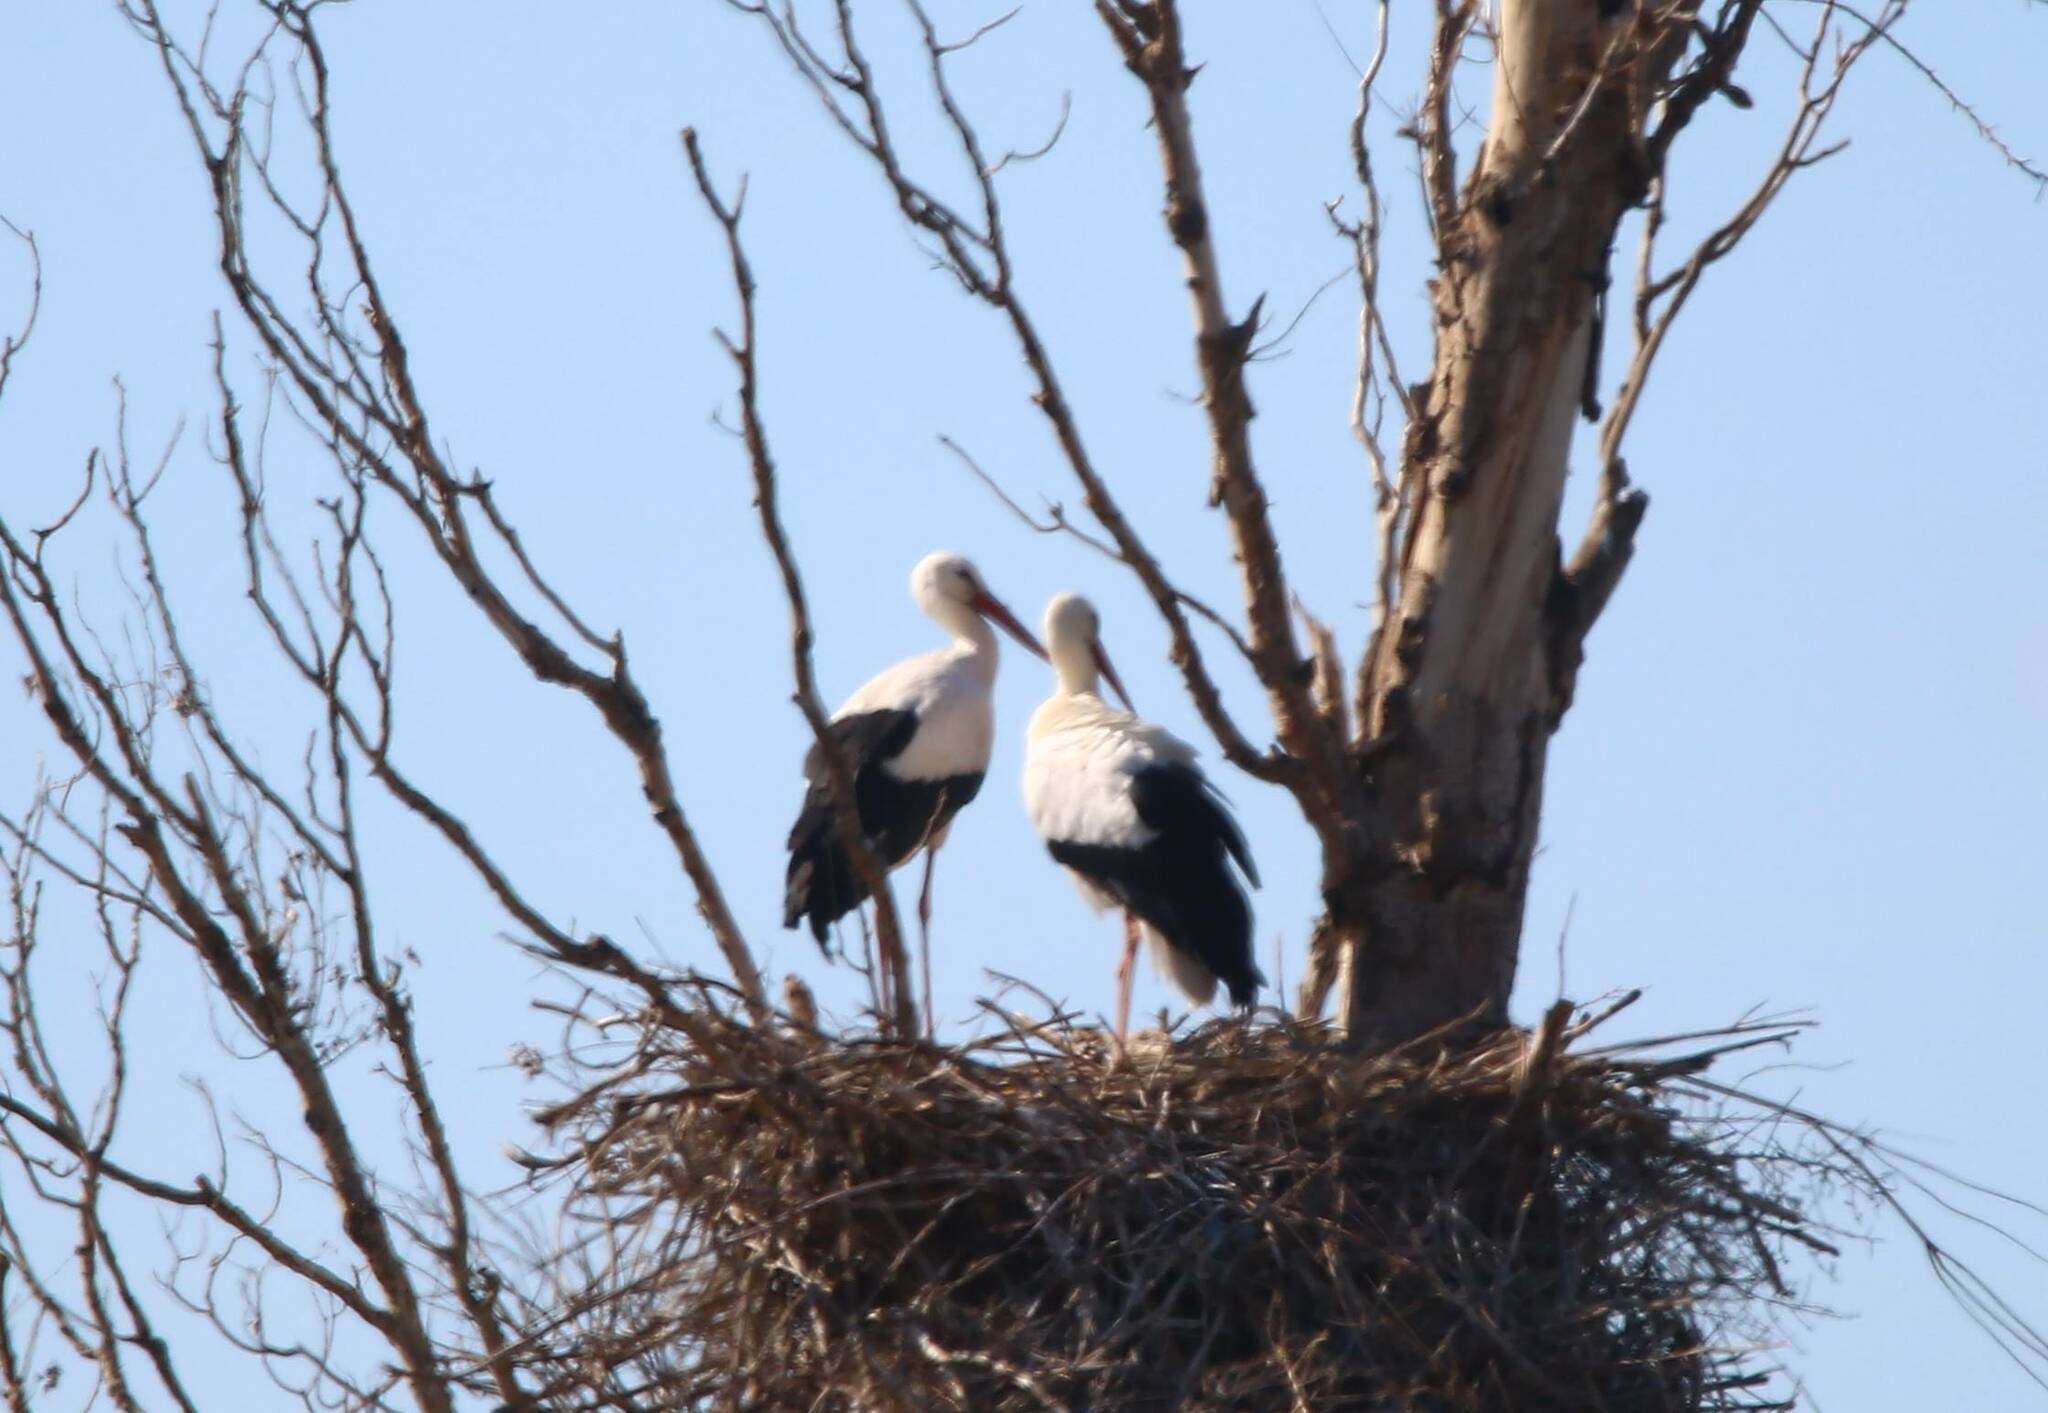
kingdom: Animalia
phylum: Chordata
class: Aves
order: Ciconiiformes
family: Ciconiidae
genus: Ciconia
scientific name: Ciconia ciconia
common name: White stork
